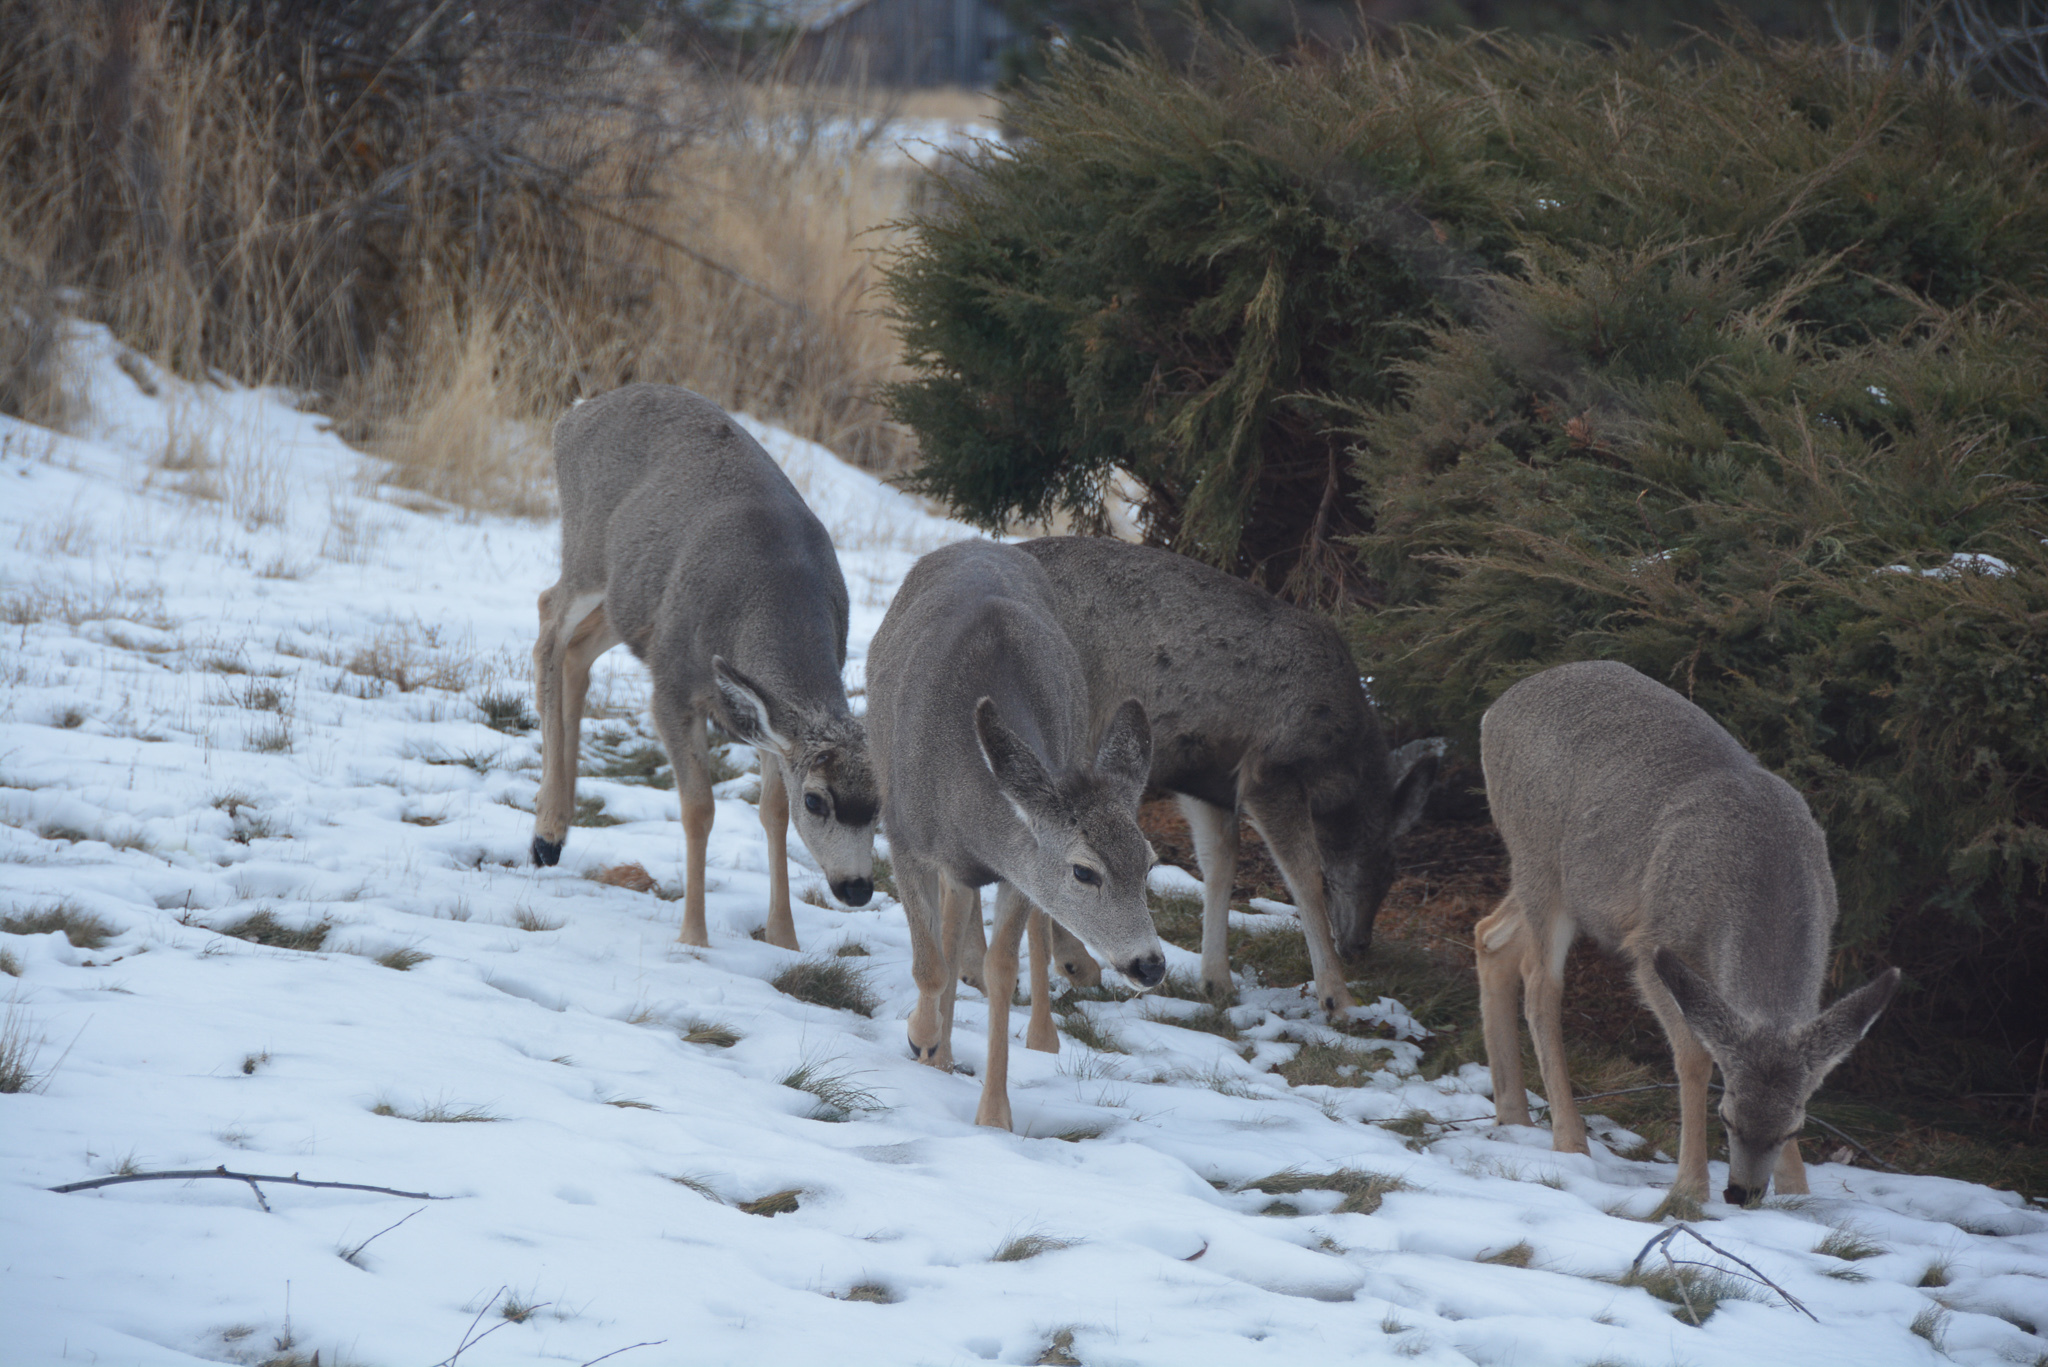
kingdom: Animalia
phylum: Chordata
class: Mammalia
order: Artiodactyla
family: Cervidae
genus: Odocoileus
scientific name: Odocoileus hemionus
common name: Mule deer
